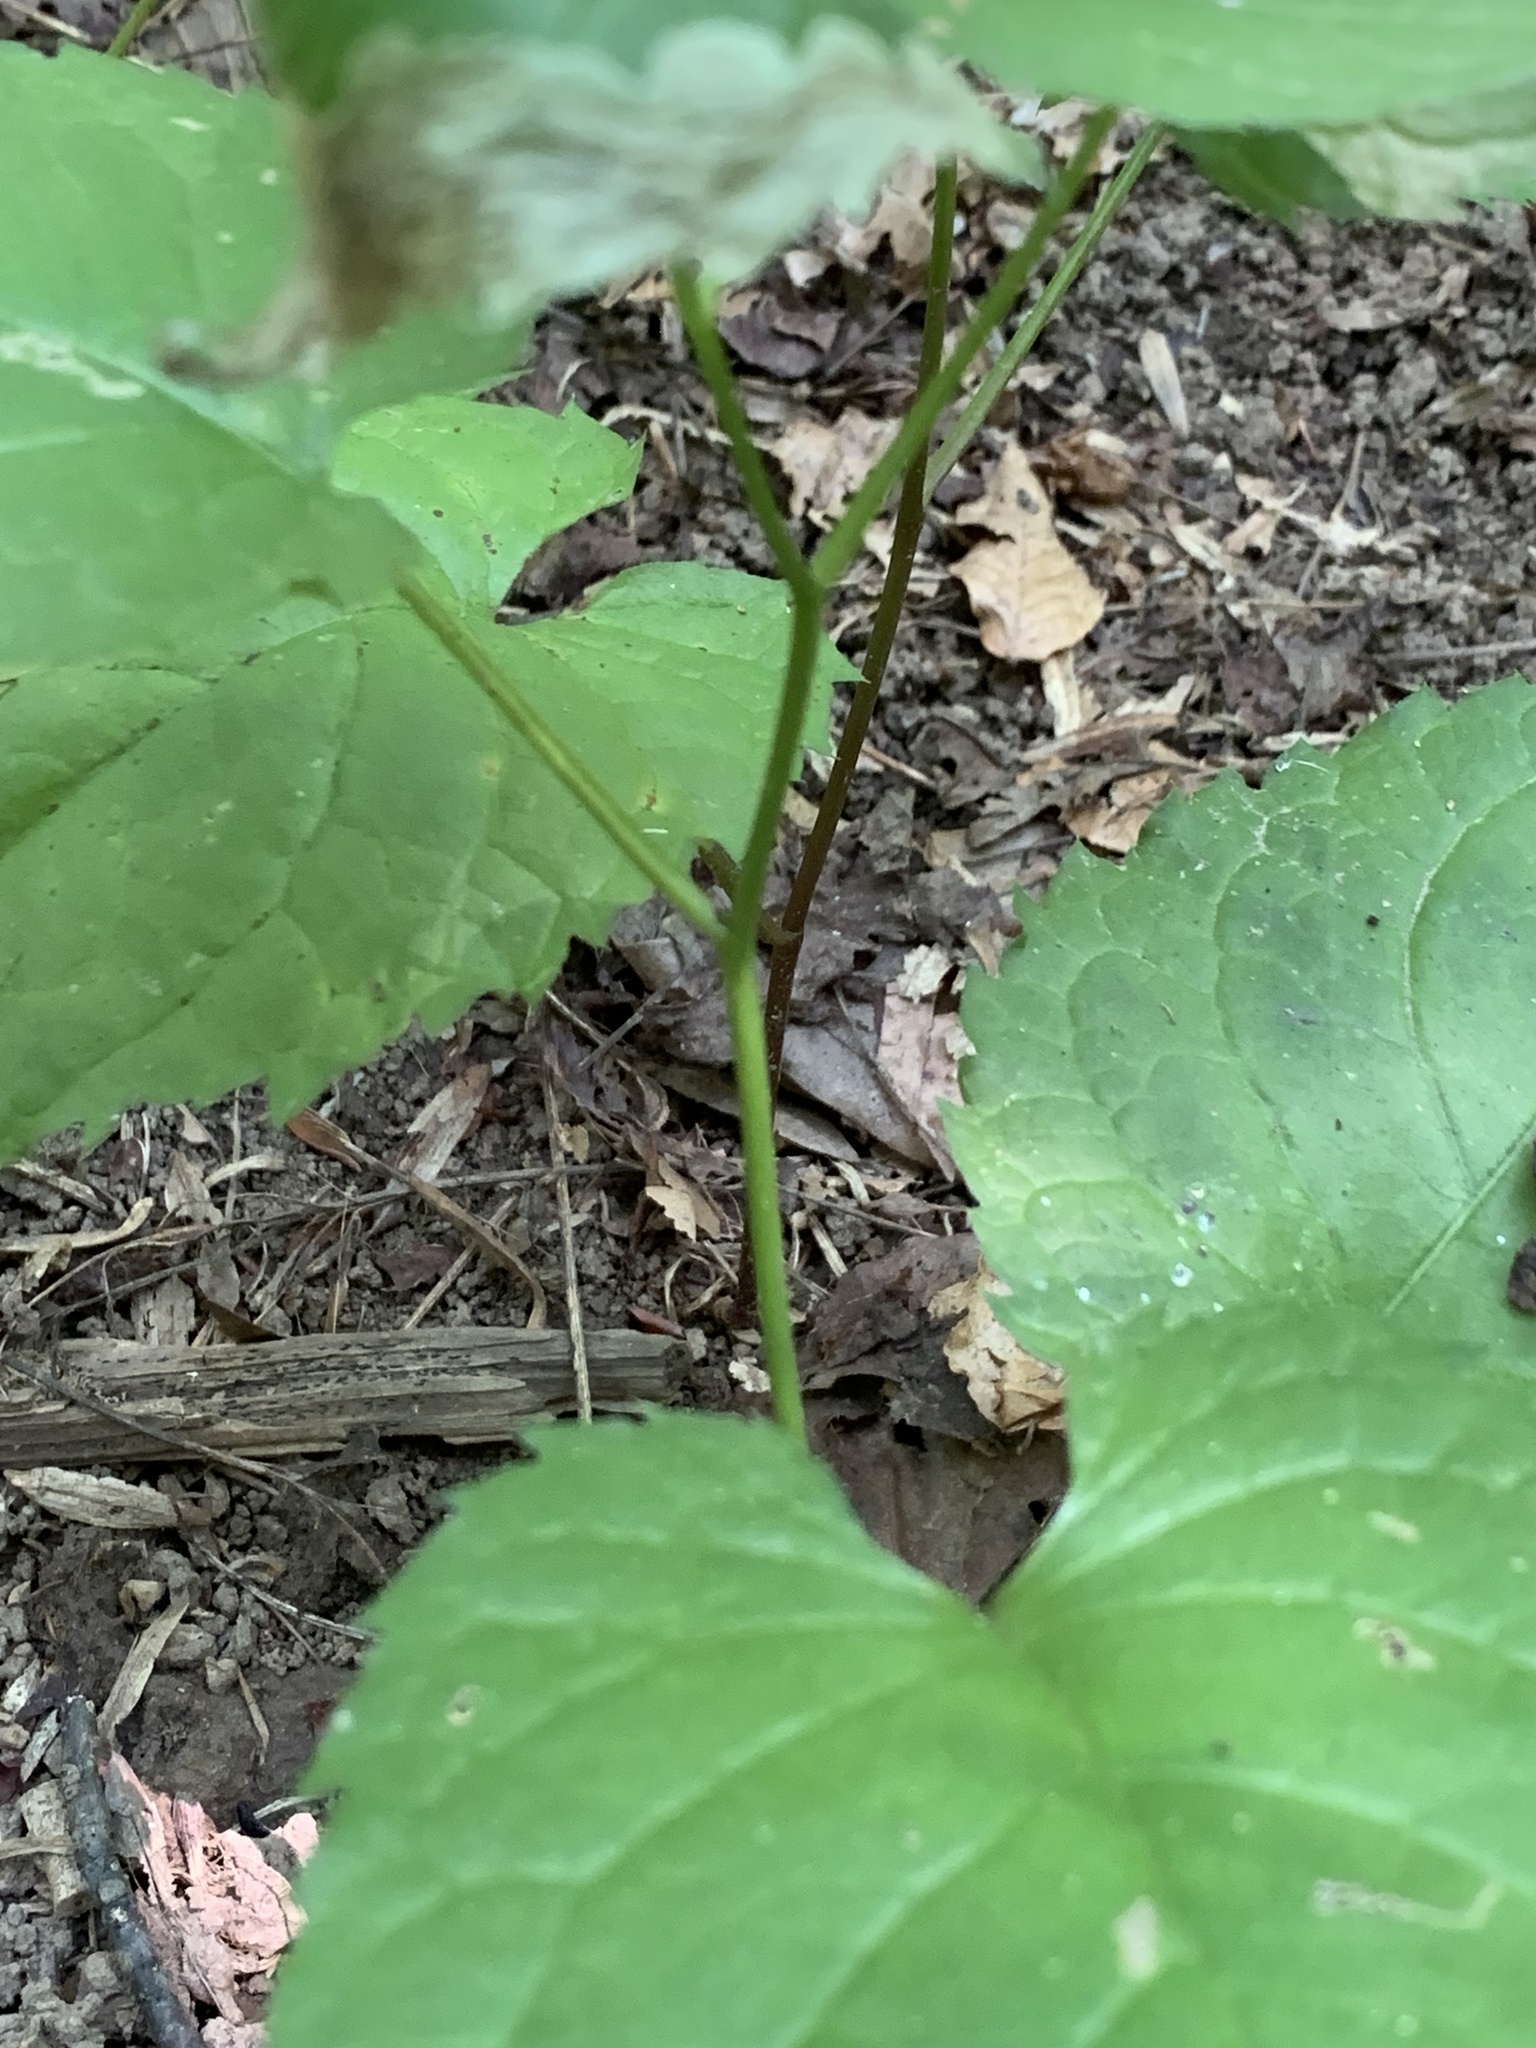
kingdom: Plantae
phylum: Tracheophyta
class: Magnoliopsida
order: Asterales
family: Asteraceae
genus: Eurybia
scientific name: Eurybia divaricata
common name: White wood aster
